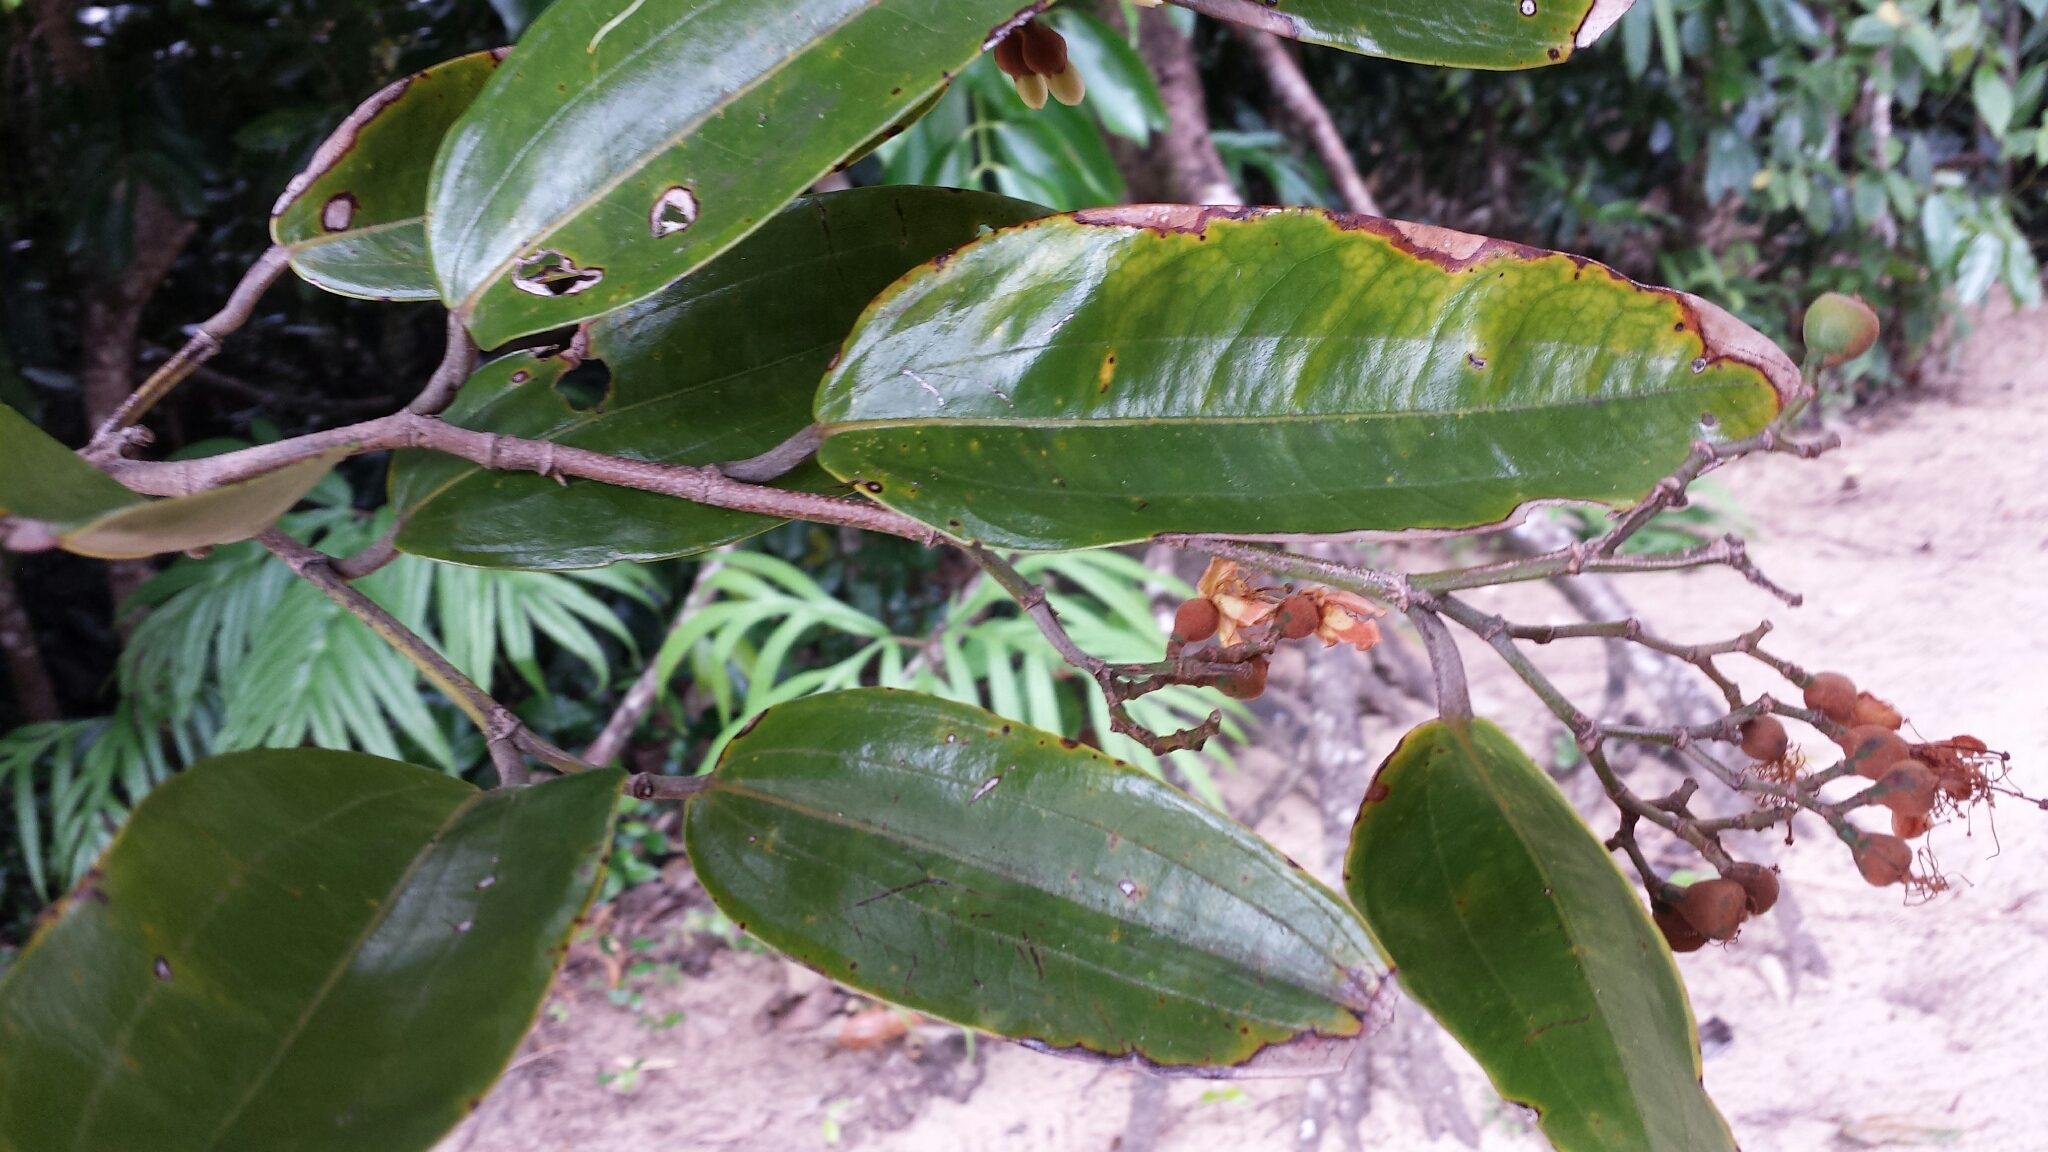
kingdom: Plantae
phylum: Tracheophyta
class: Magnoliopsida
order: Malvales
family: Sarcolaenaceae
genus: Sarcolaena
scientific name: Sarcolaena multiflora
